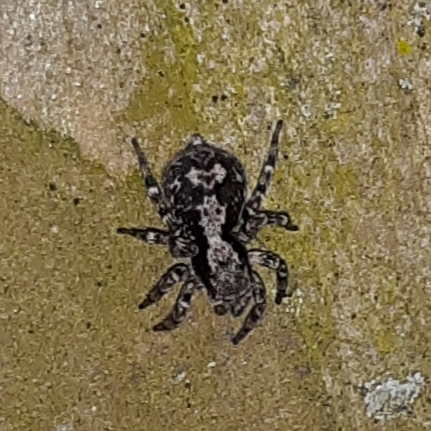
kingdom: Animalia
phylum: Arthropoda
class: Arachnida
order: Araneae
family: Salticidae
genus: Naphrys
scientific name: Naphrys pulex
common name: Flea jumping spider
